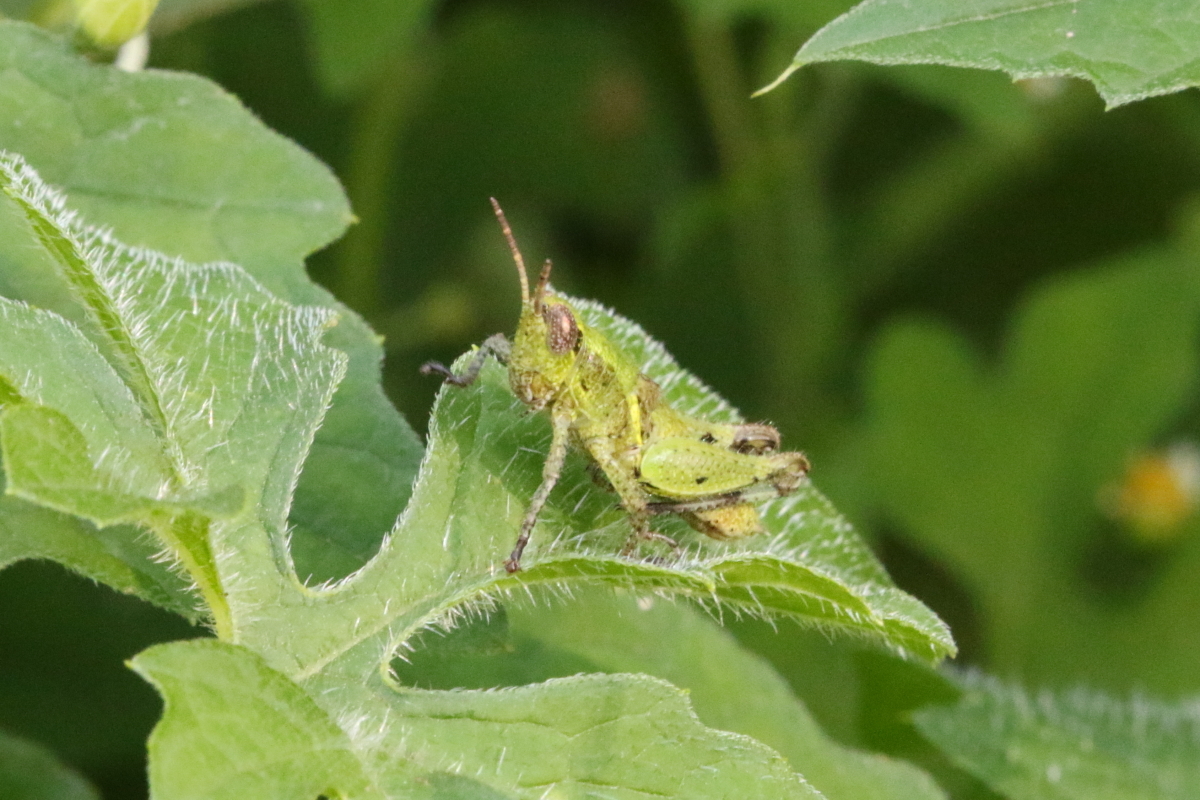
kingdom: Animalia
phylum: Arthropoda
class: Insecta
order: Orthoptera
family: Acrididae
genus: Phaeocatantops
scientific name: Phaeocatantops decoratus
